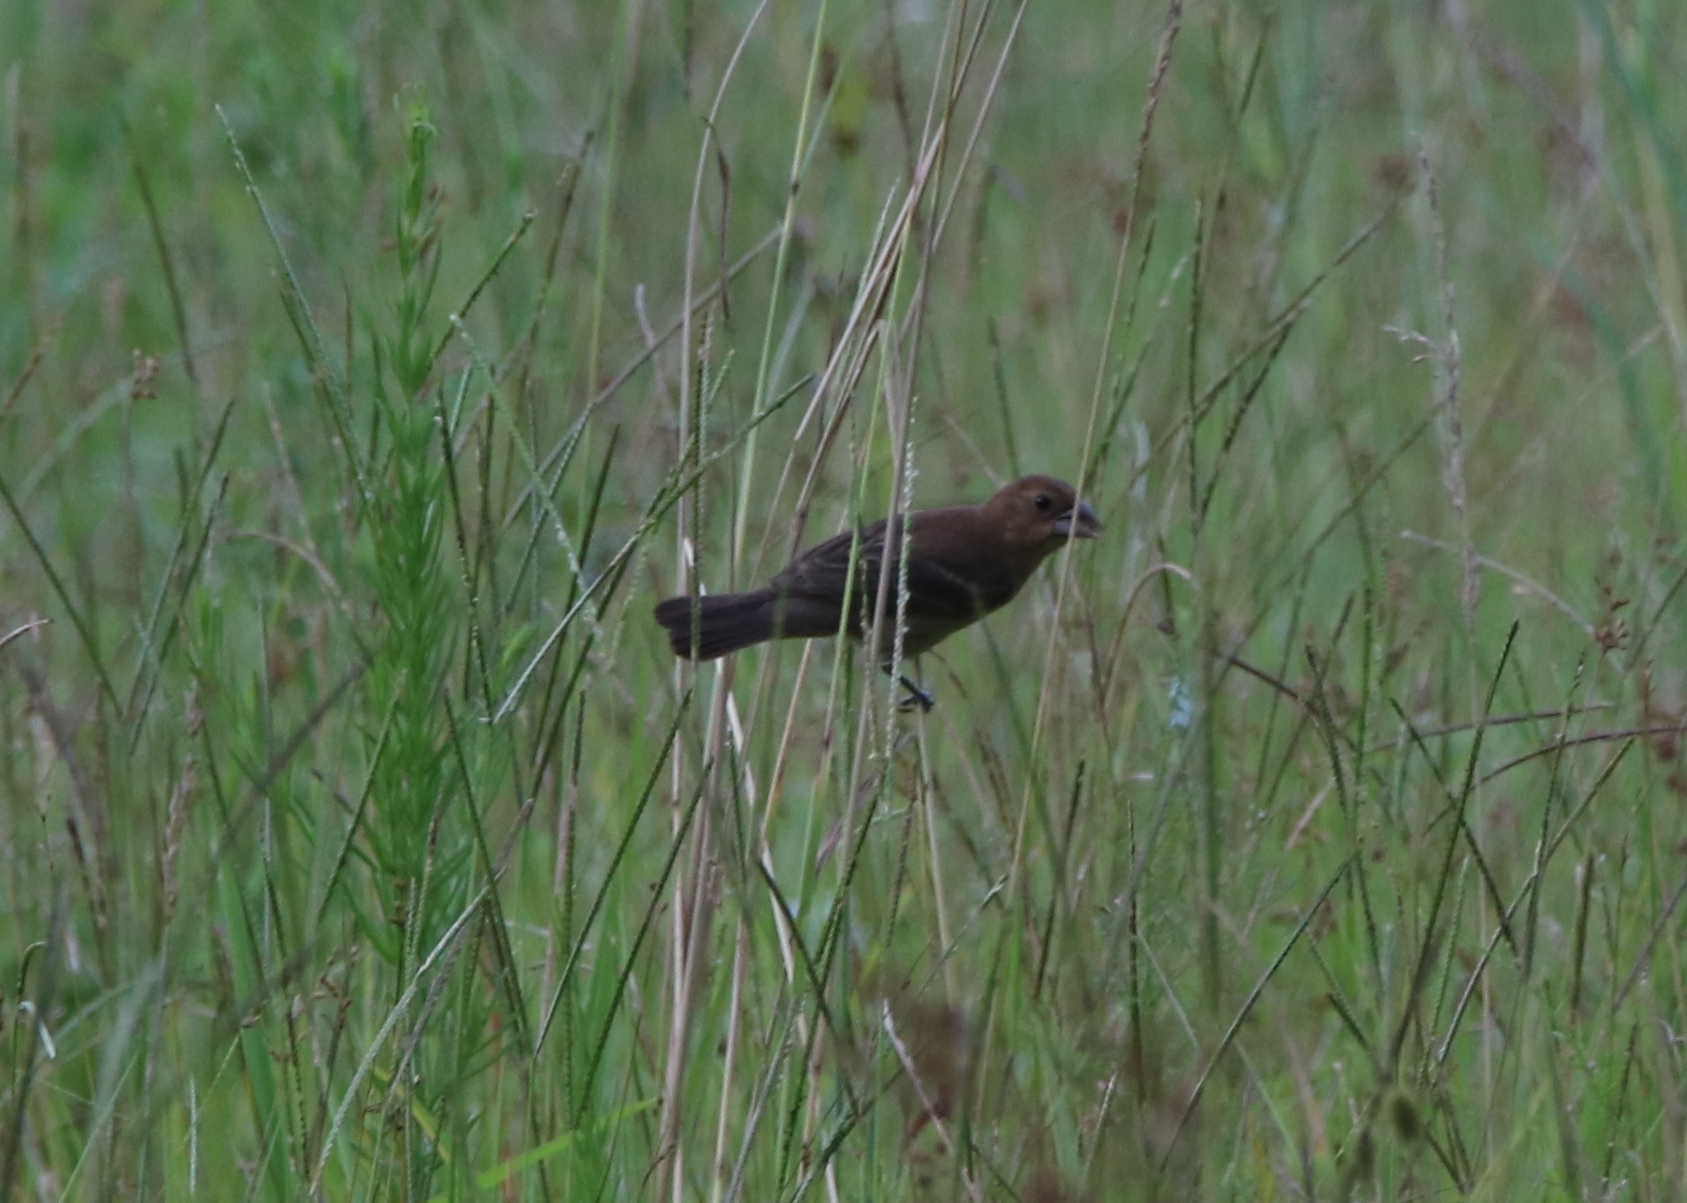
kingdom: Animalia
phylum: Chordata
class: Aves
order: Passeriformes
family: Cardinalidae
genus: Passerina
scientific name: Passerina caerulea
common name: Blue grosbeak
